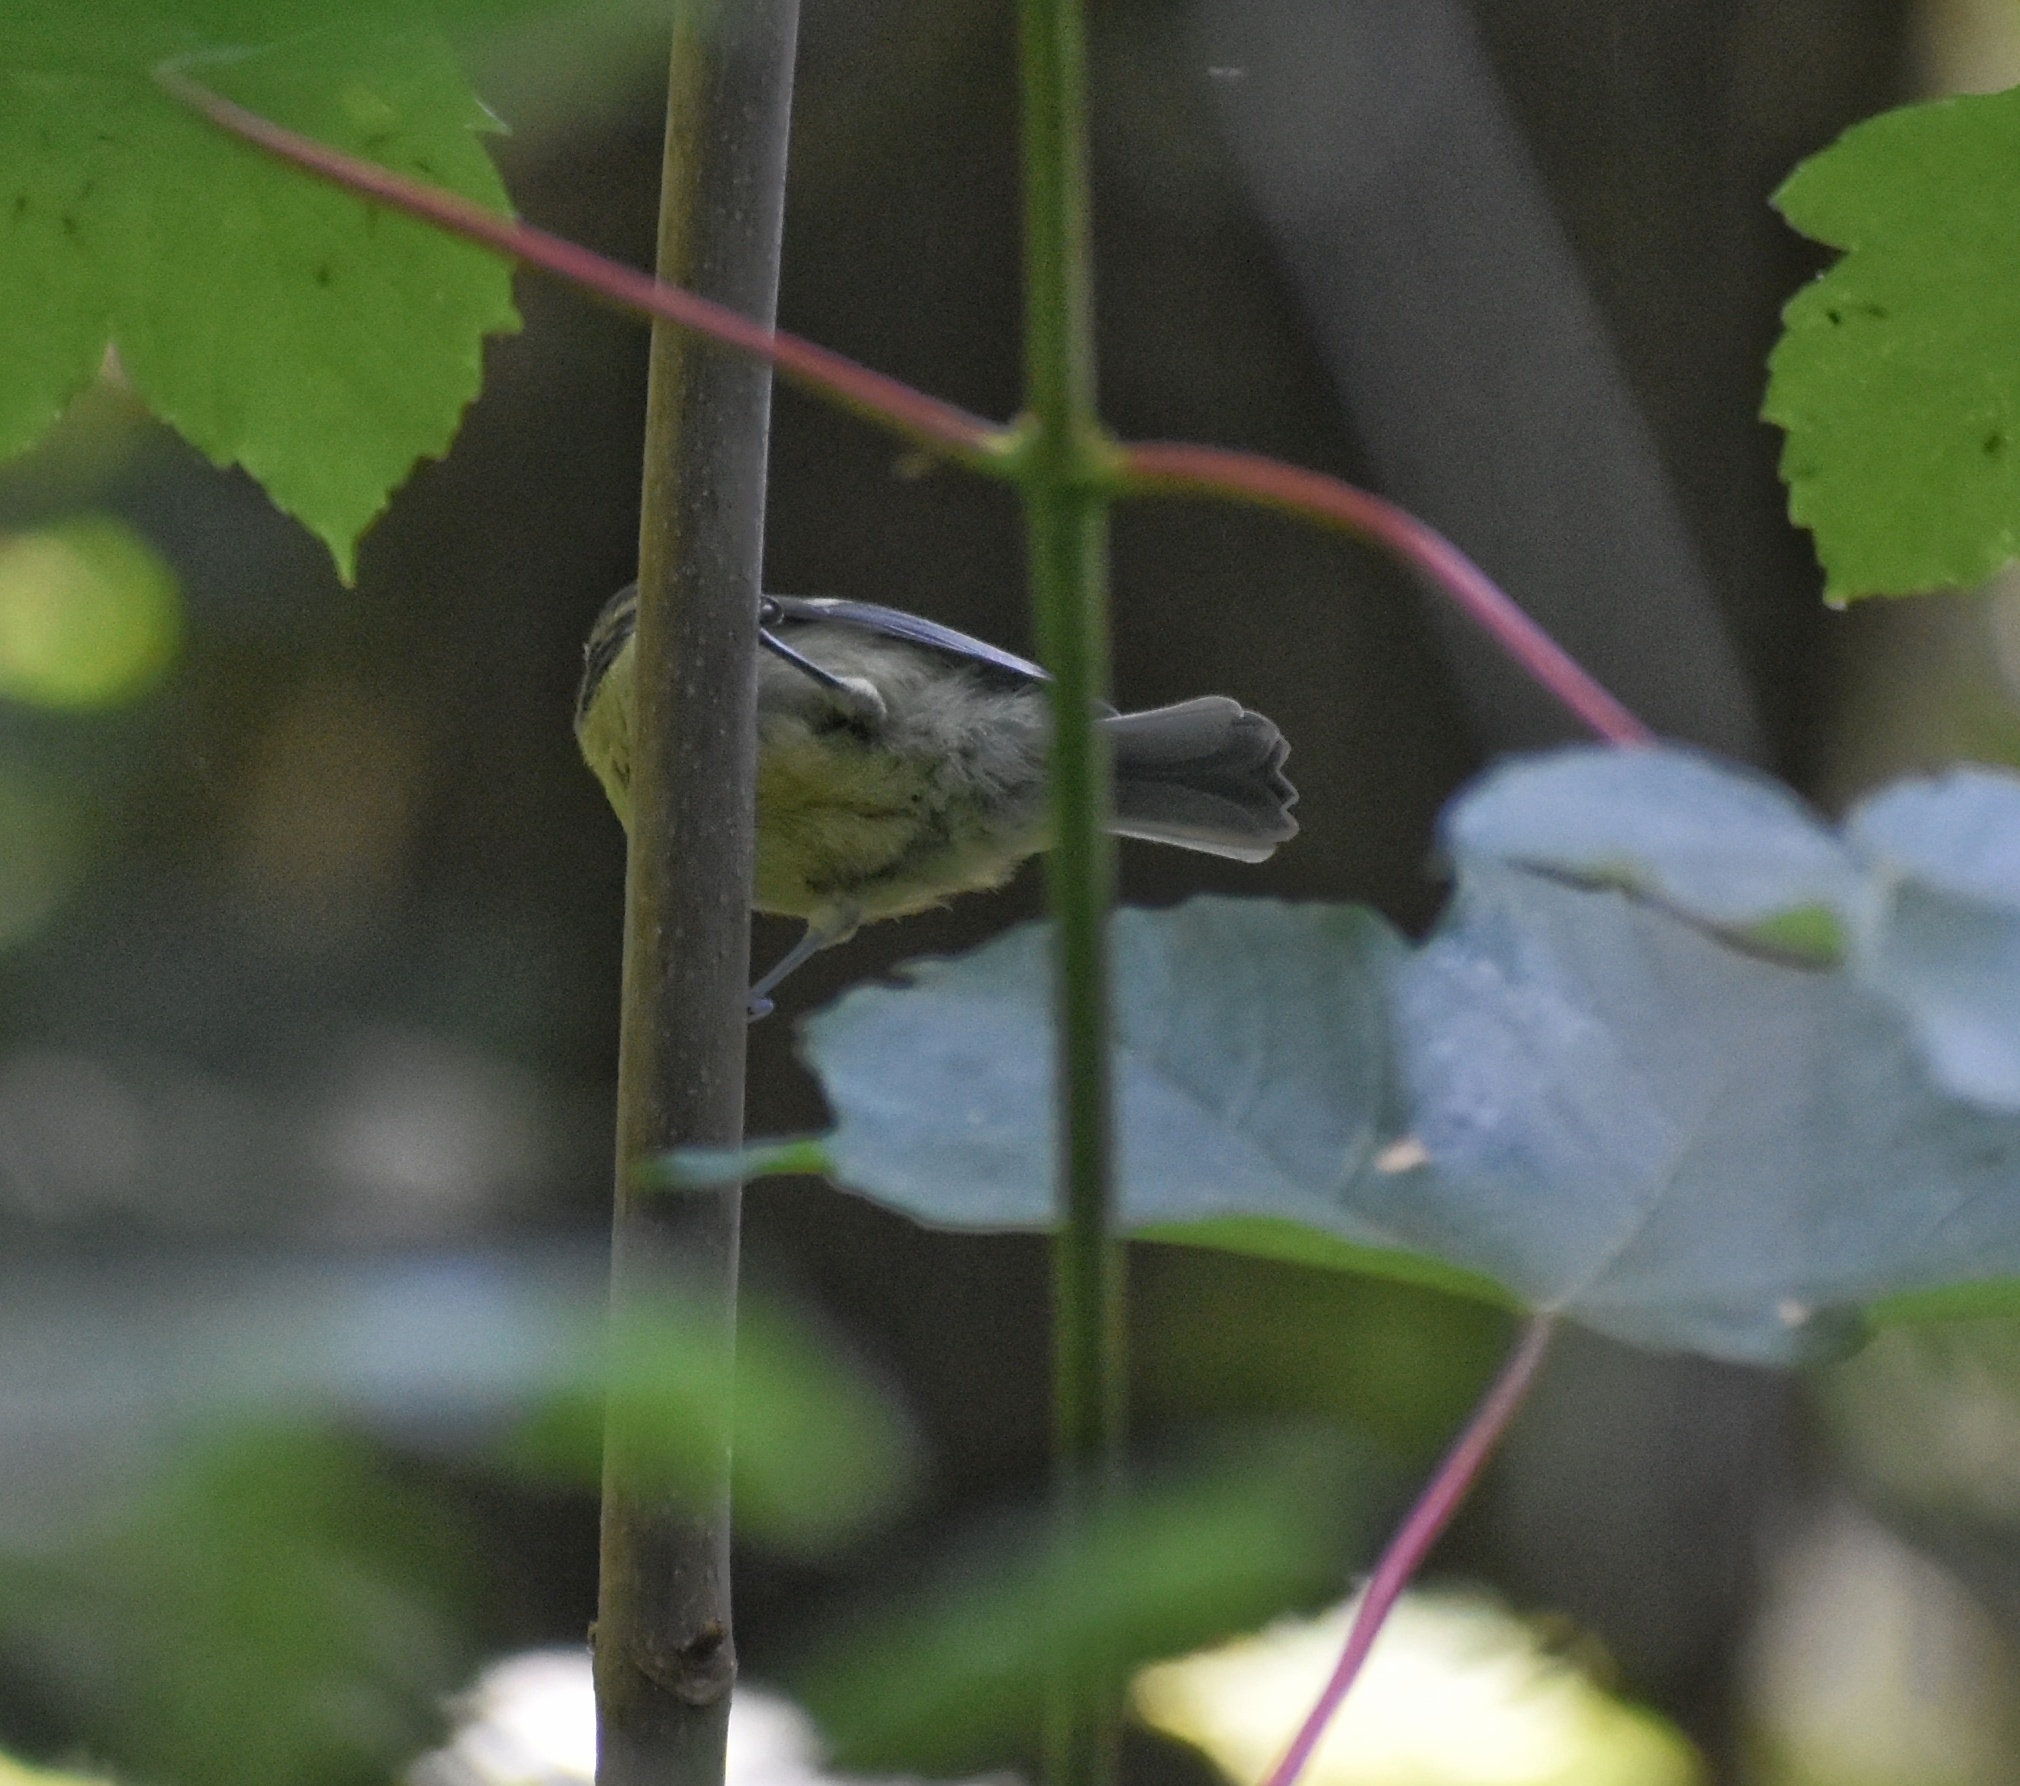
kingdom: Animalia
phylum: Chordata
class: Aves
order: Passeriformes
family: Paridae
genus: Cyanistes
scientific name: Cyanistes caeruleus
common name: Eurasian blue tit
